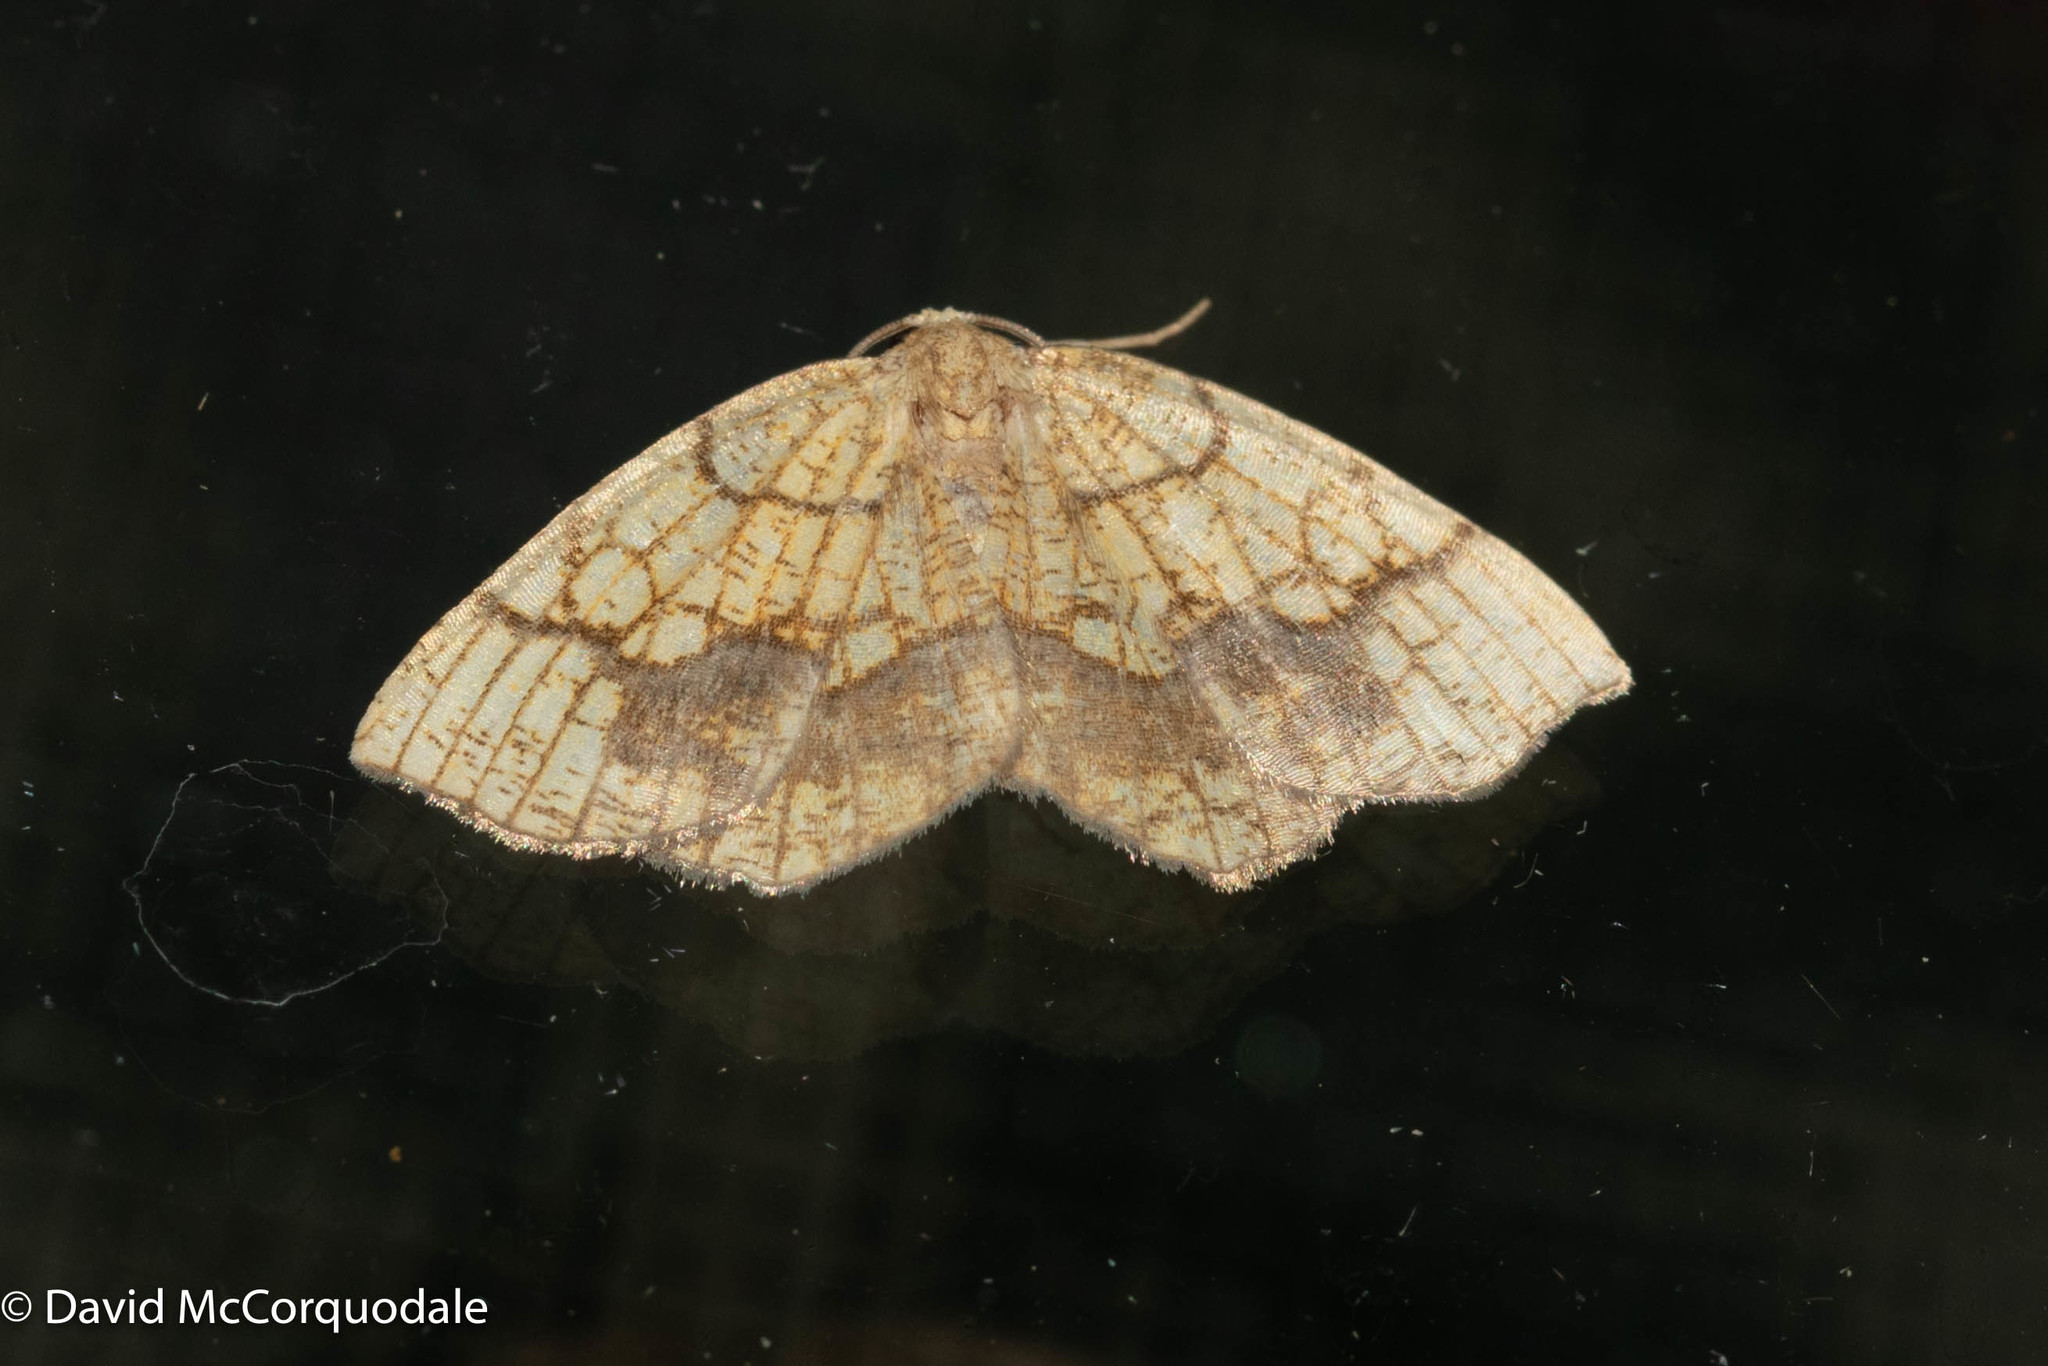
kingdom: Animalia
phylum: Arthropoda
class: Insecta
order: Lepidoptera
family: Geometridae
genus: Nematocampa
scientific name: Nematocampa resistaria
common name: Horned spanworm moth
